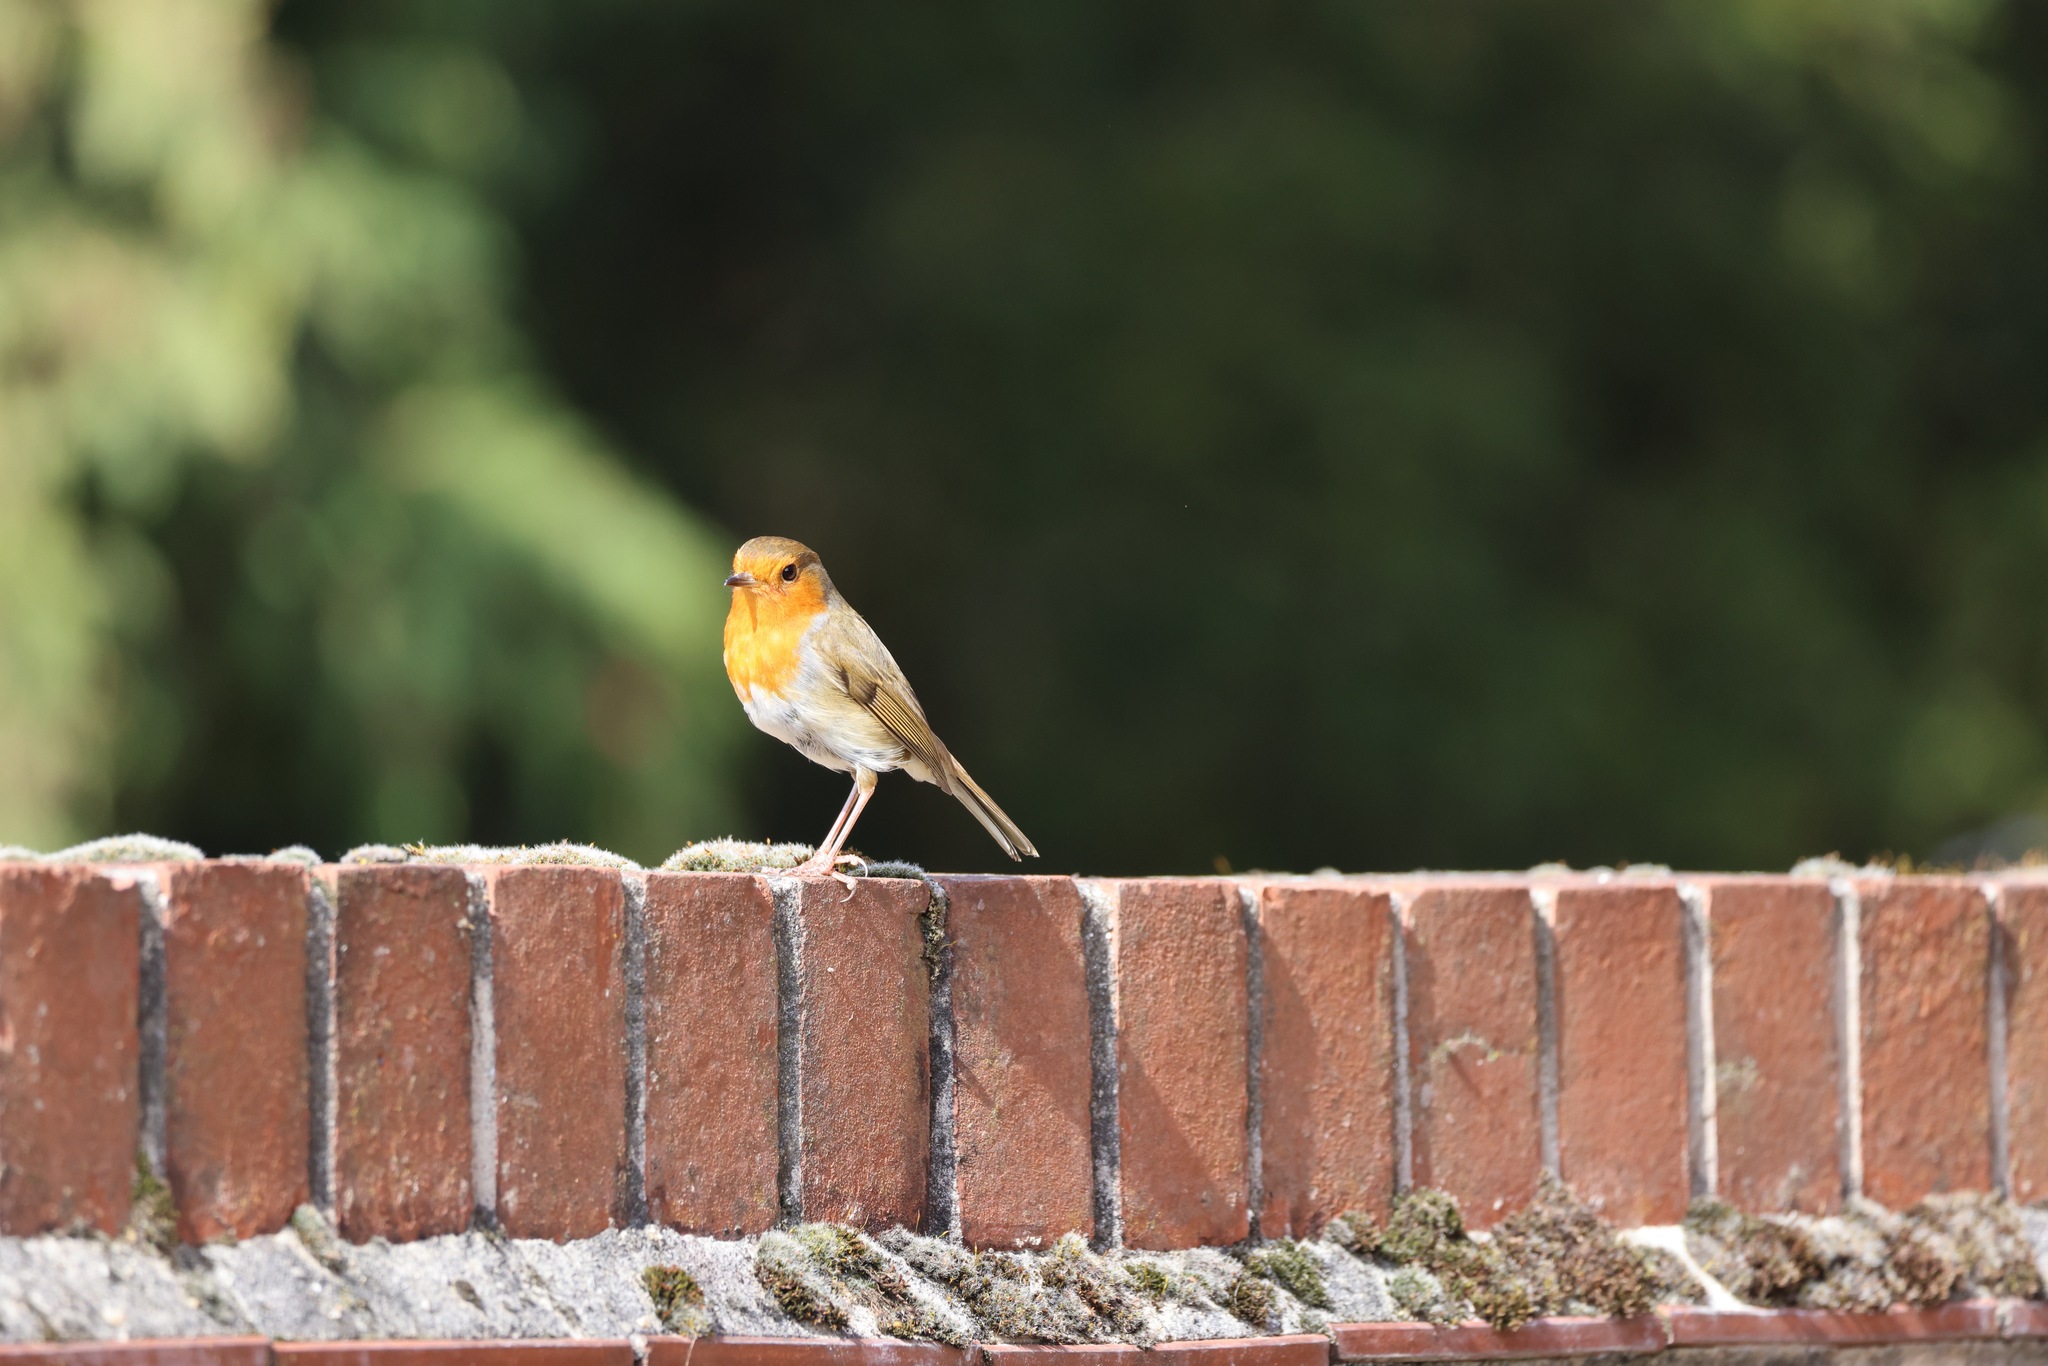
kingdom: Animalia
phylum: Chordata
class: Aves
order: Passeriformes
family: Muscicapidae
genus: Erithacus
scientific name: Erithacus rubecula
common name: European robin
